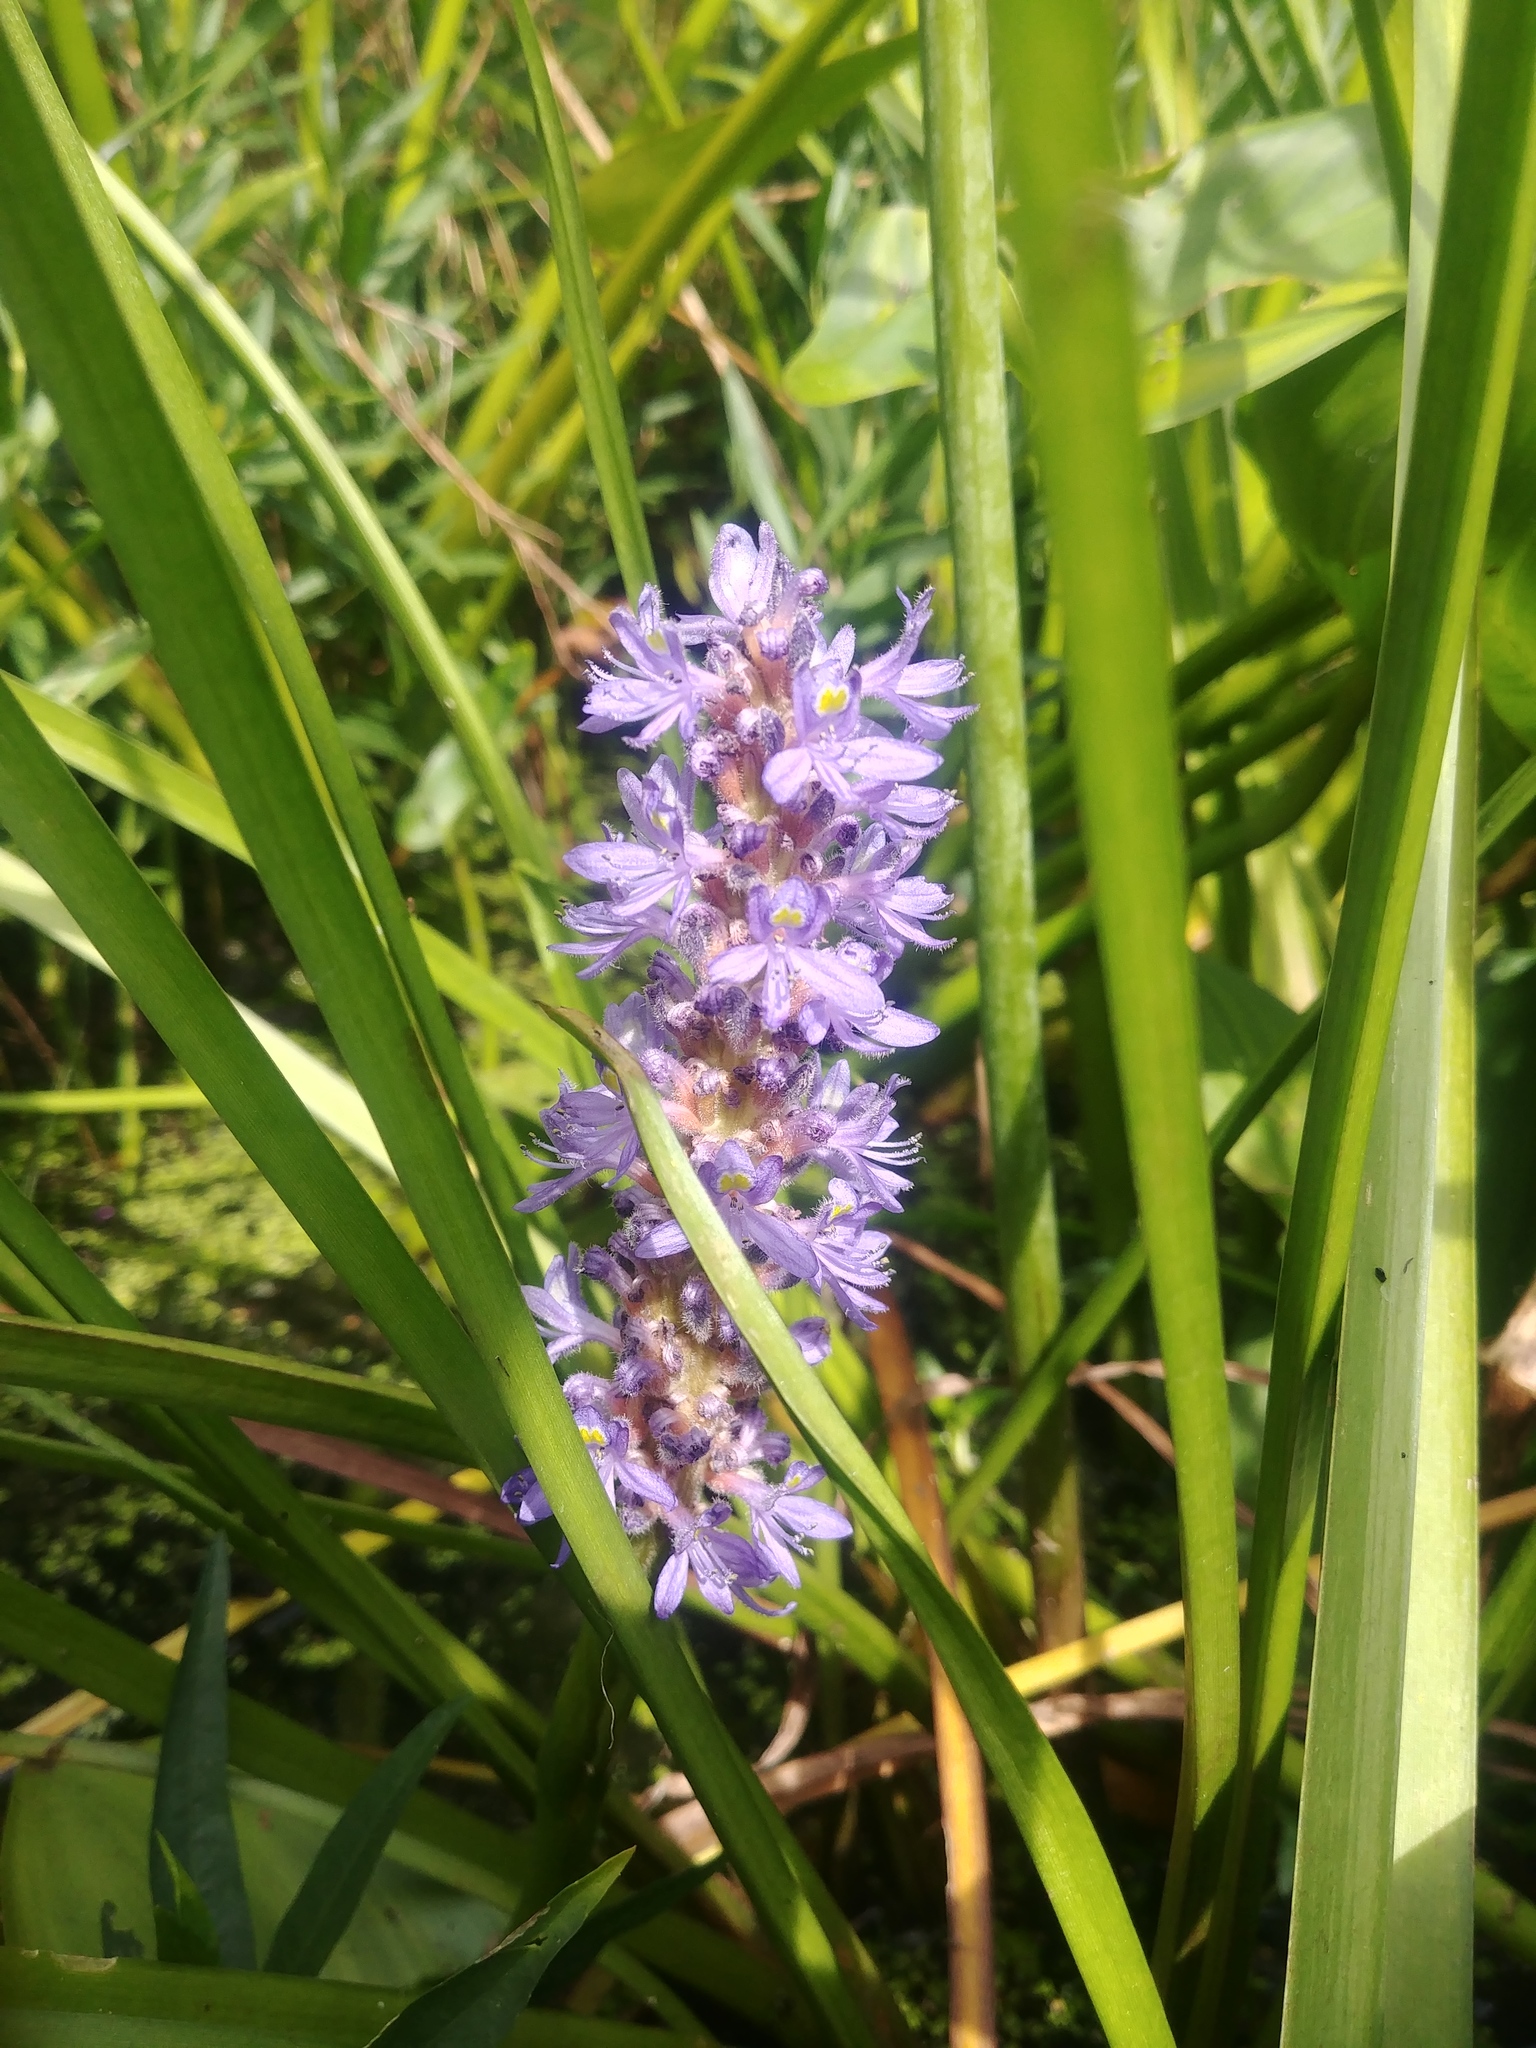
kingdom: Plantae
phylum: Tracheophyta
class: Liliopsida
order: Commelinales
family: Pontederiaceae
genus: Pontederia
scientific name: Pontederia cordata
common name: Pickerelweed
